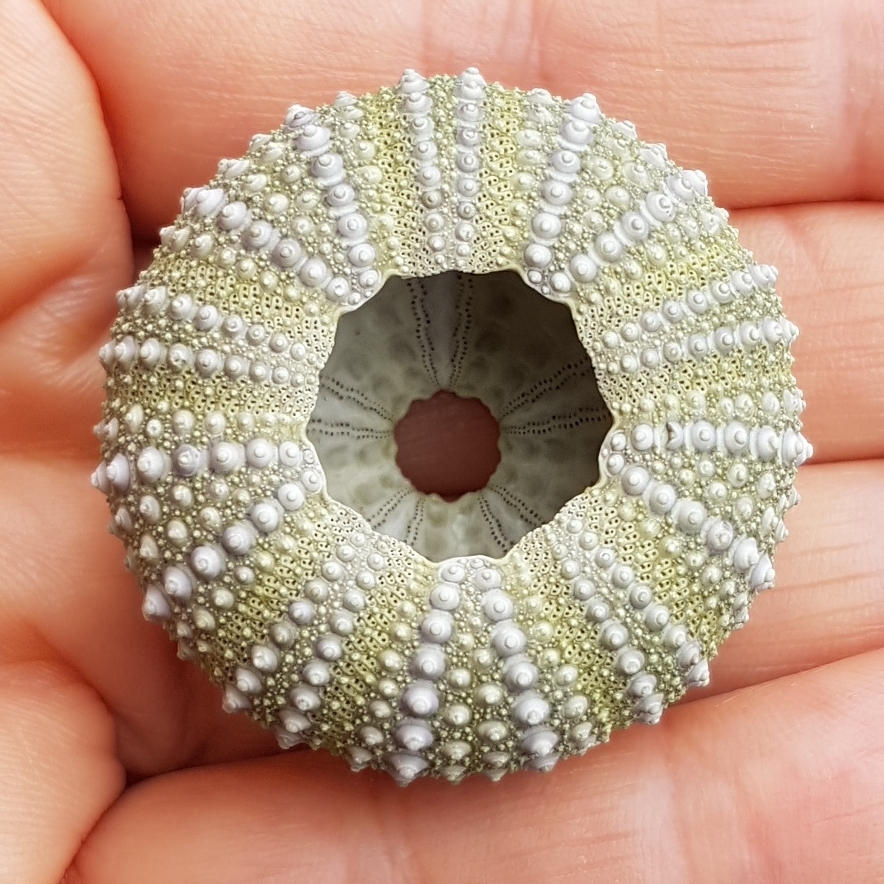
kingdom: Animalia
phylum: Echinodermata
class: Echinoidea
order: Camarodonta
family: Parechinidae
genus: Paracentrotus
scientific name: Paracentrotus lividus
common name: Purple sea urchin
